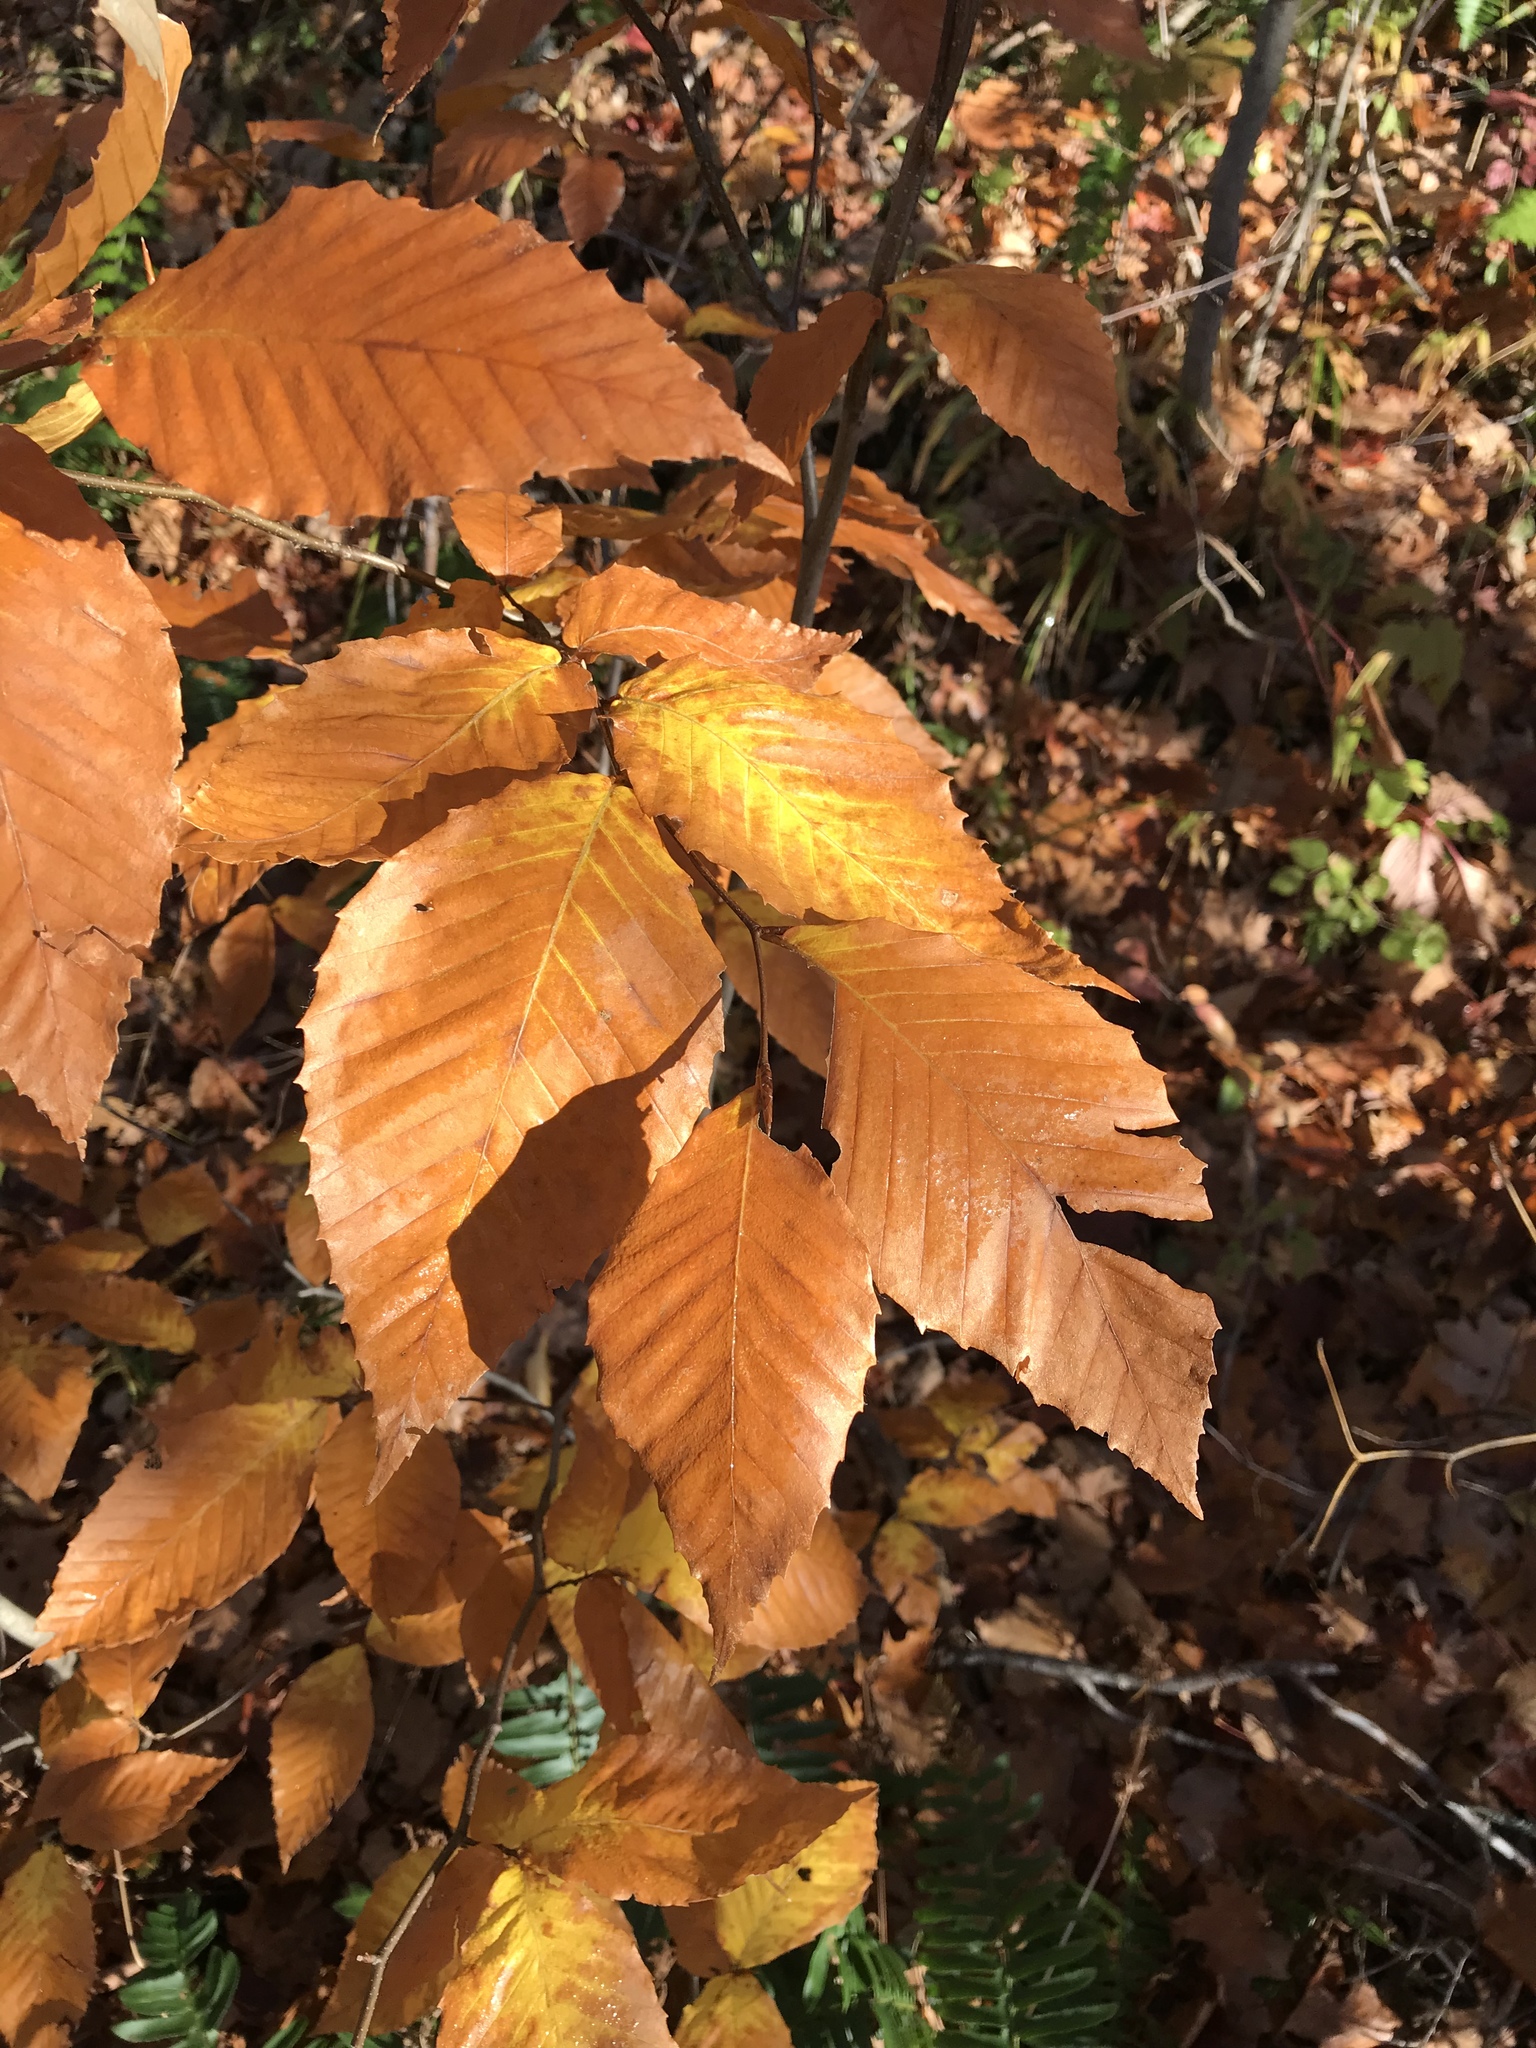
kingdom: Plantae
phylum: Tracheophyta
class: Magnoliopsida
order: Fagales
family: Fagaceae
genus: Fagus
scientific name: Fagus grandifolia
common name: American beech
